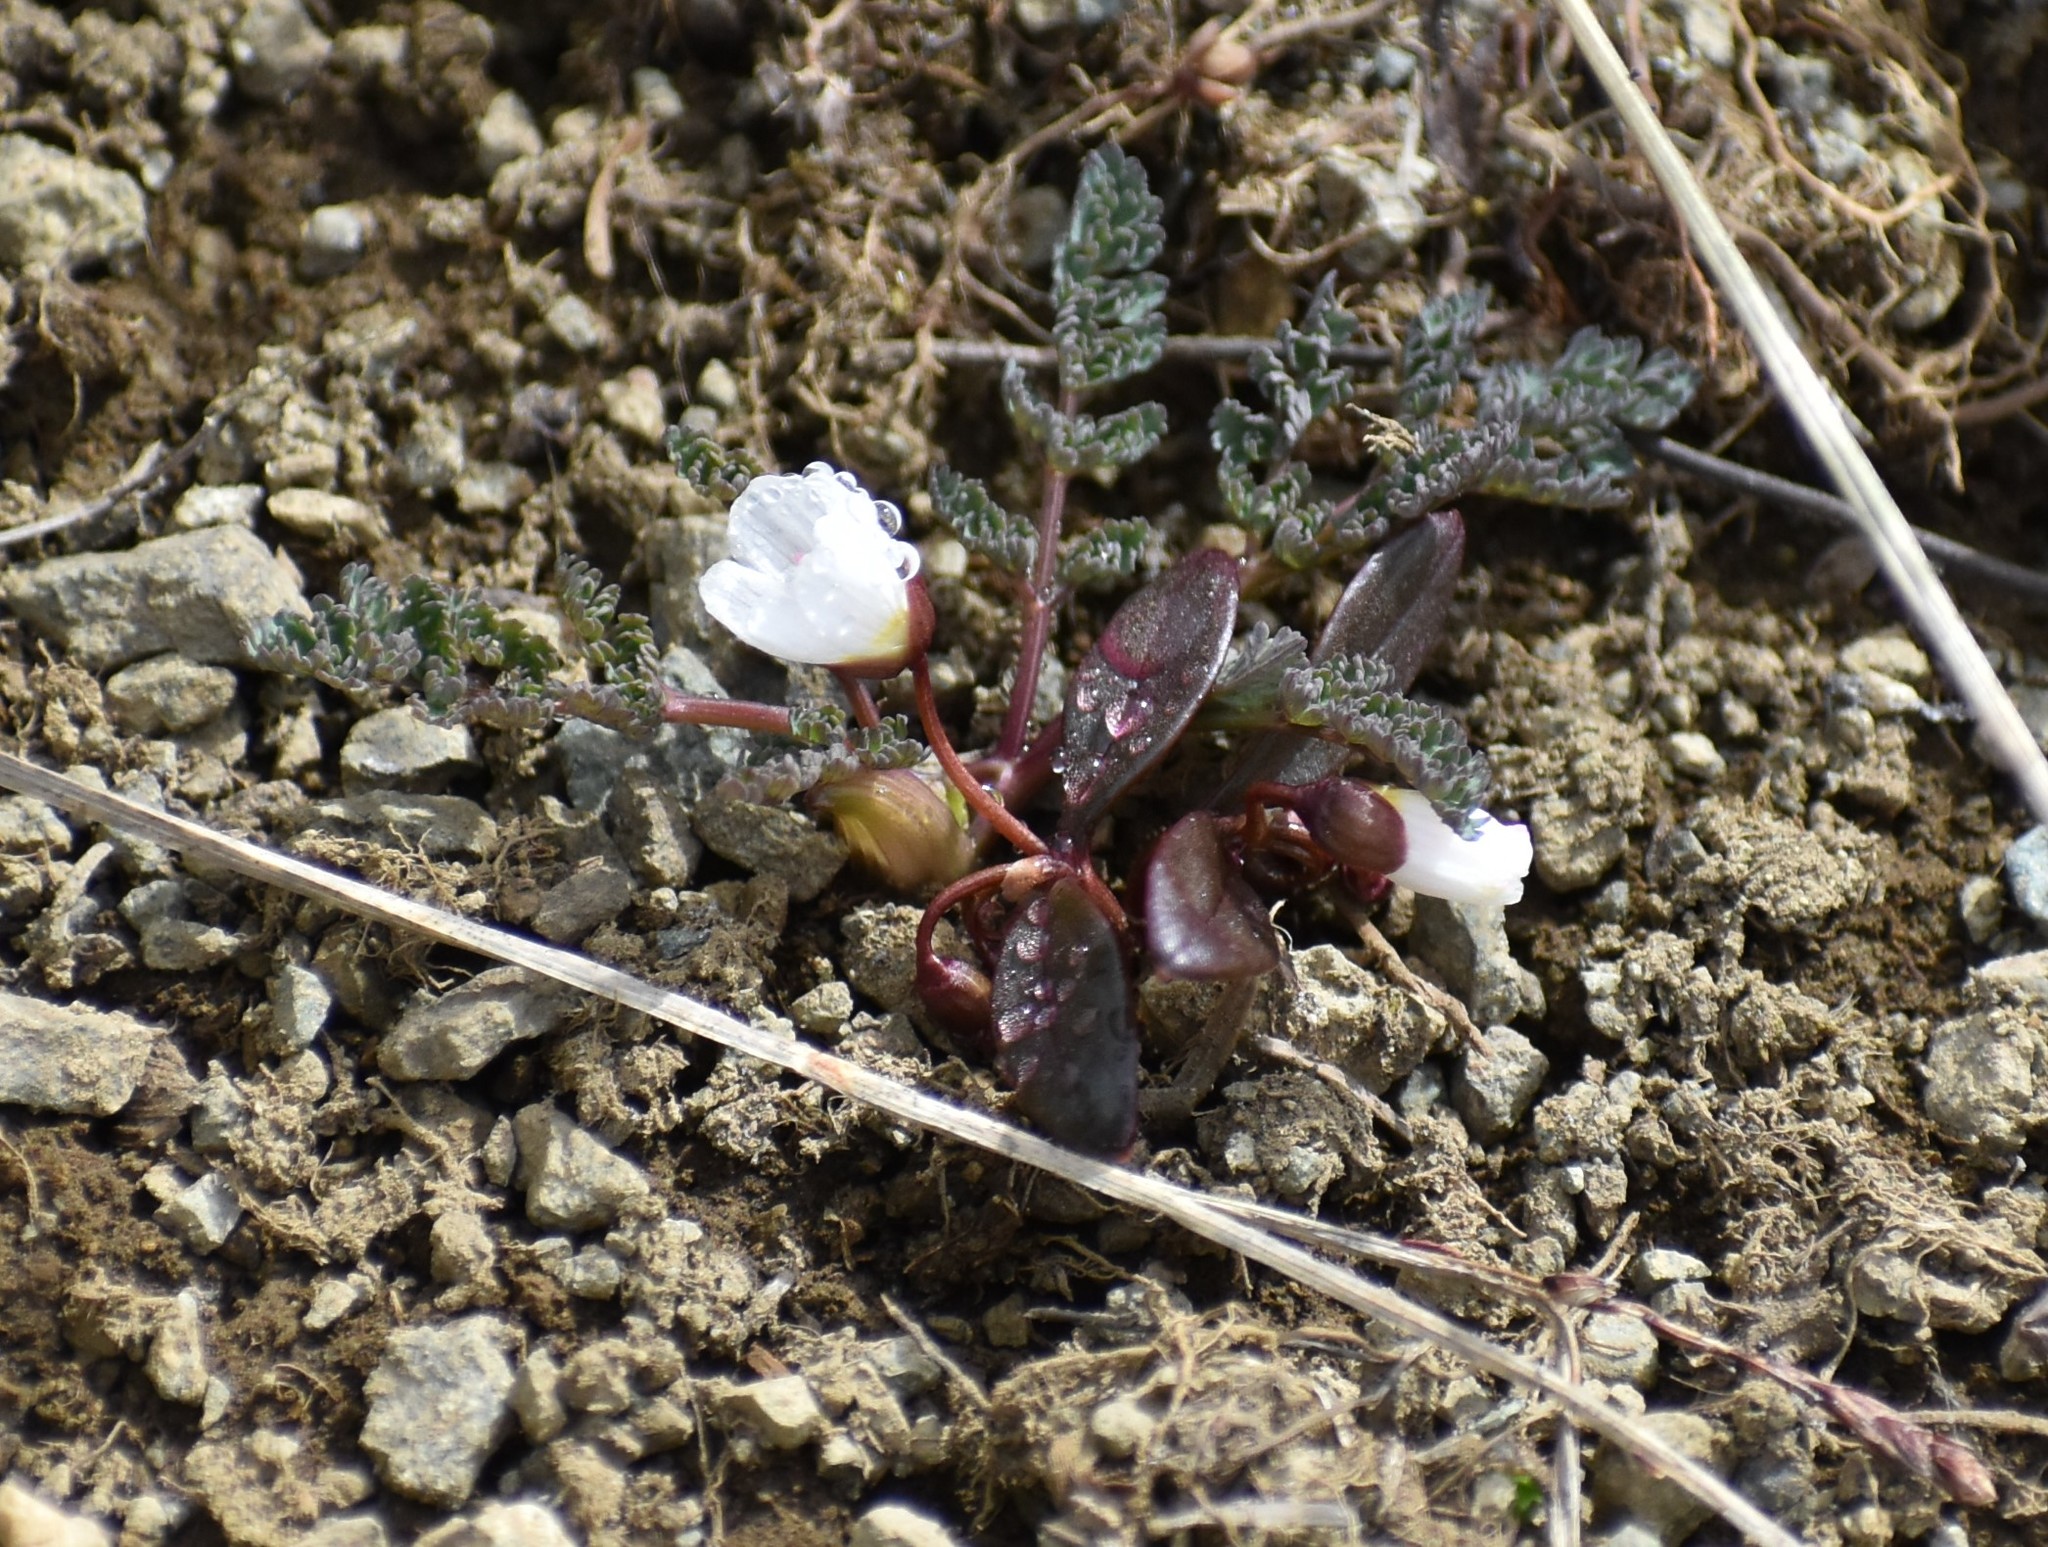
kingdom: Plantae
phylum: Tracheophyta
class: Magnoliopsida
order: Caryophyllales
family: Montiaceae
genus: Claytonia
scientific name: Claytonia multiscapa
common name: Lanceleaf springbeauty
